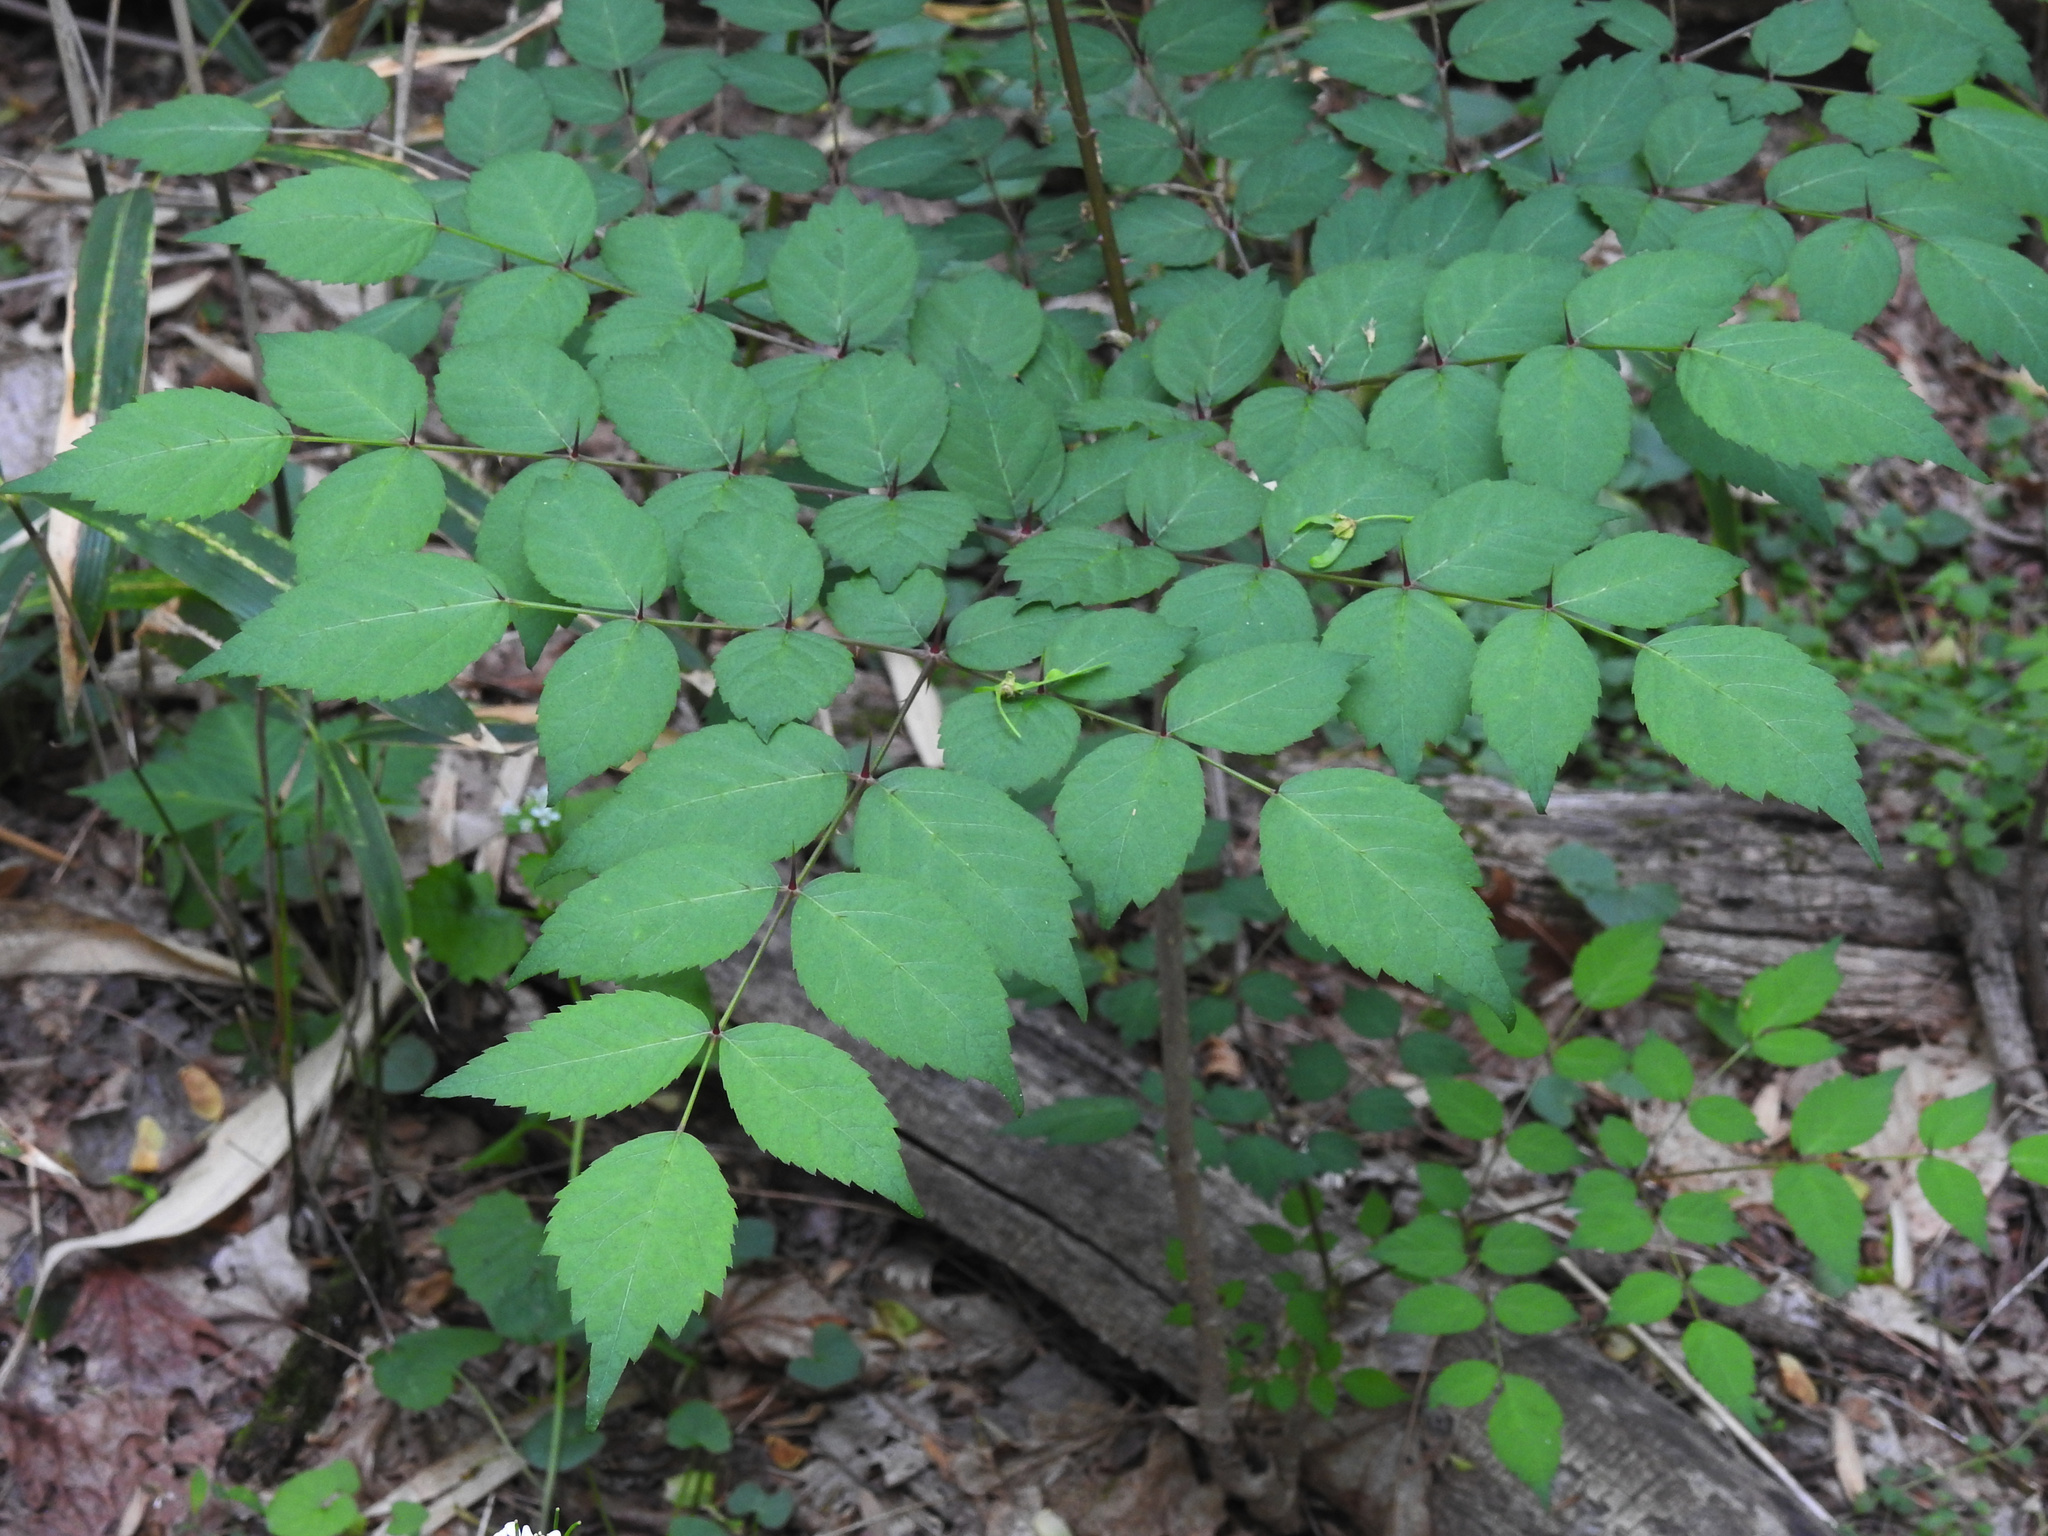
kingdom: Plantae
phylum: Tracheophyta
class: Magnoliopsida
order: Apiales
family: Araliaceae
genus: Aralia
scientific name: Aralia elata
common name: Japanese angelica-tree
